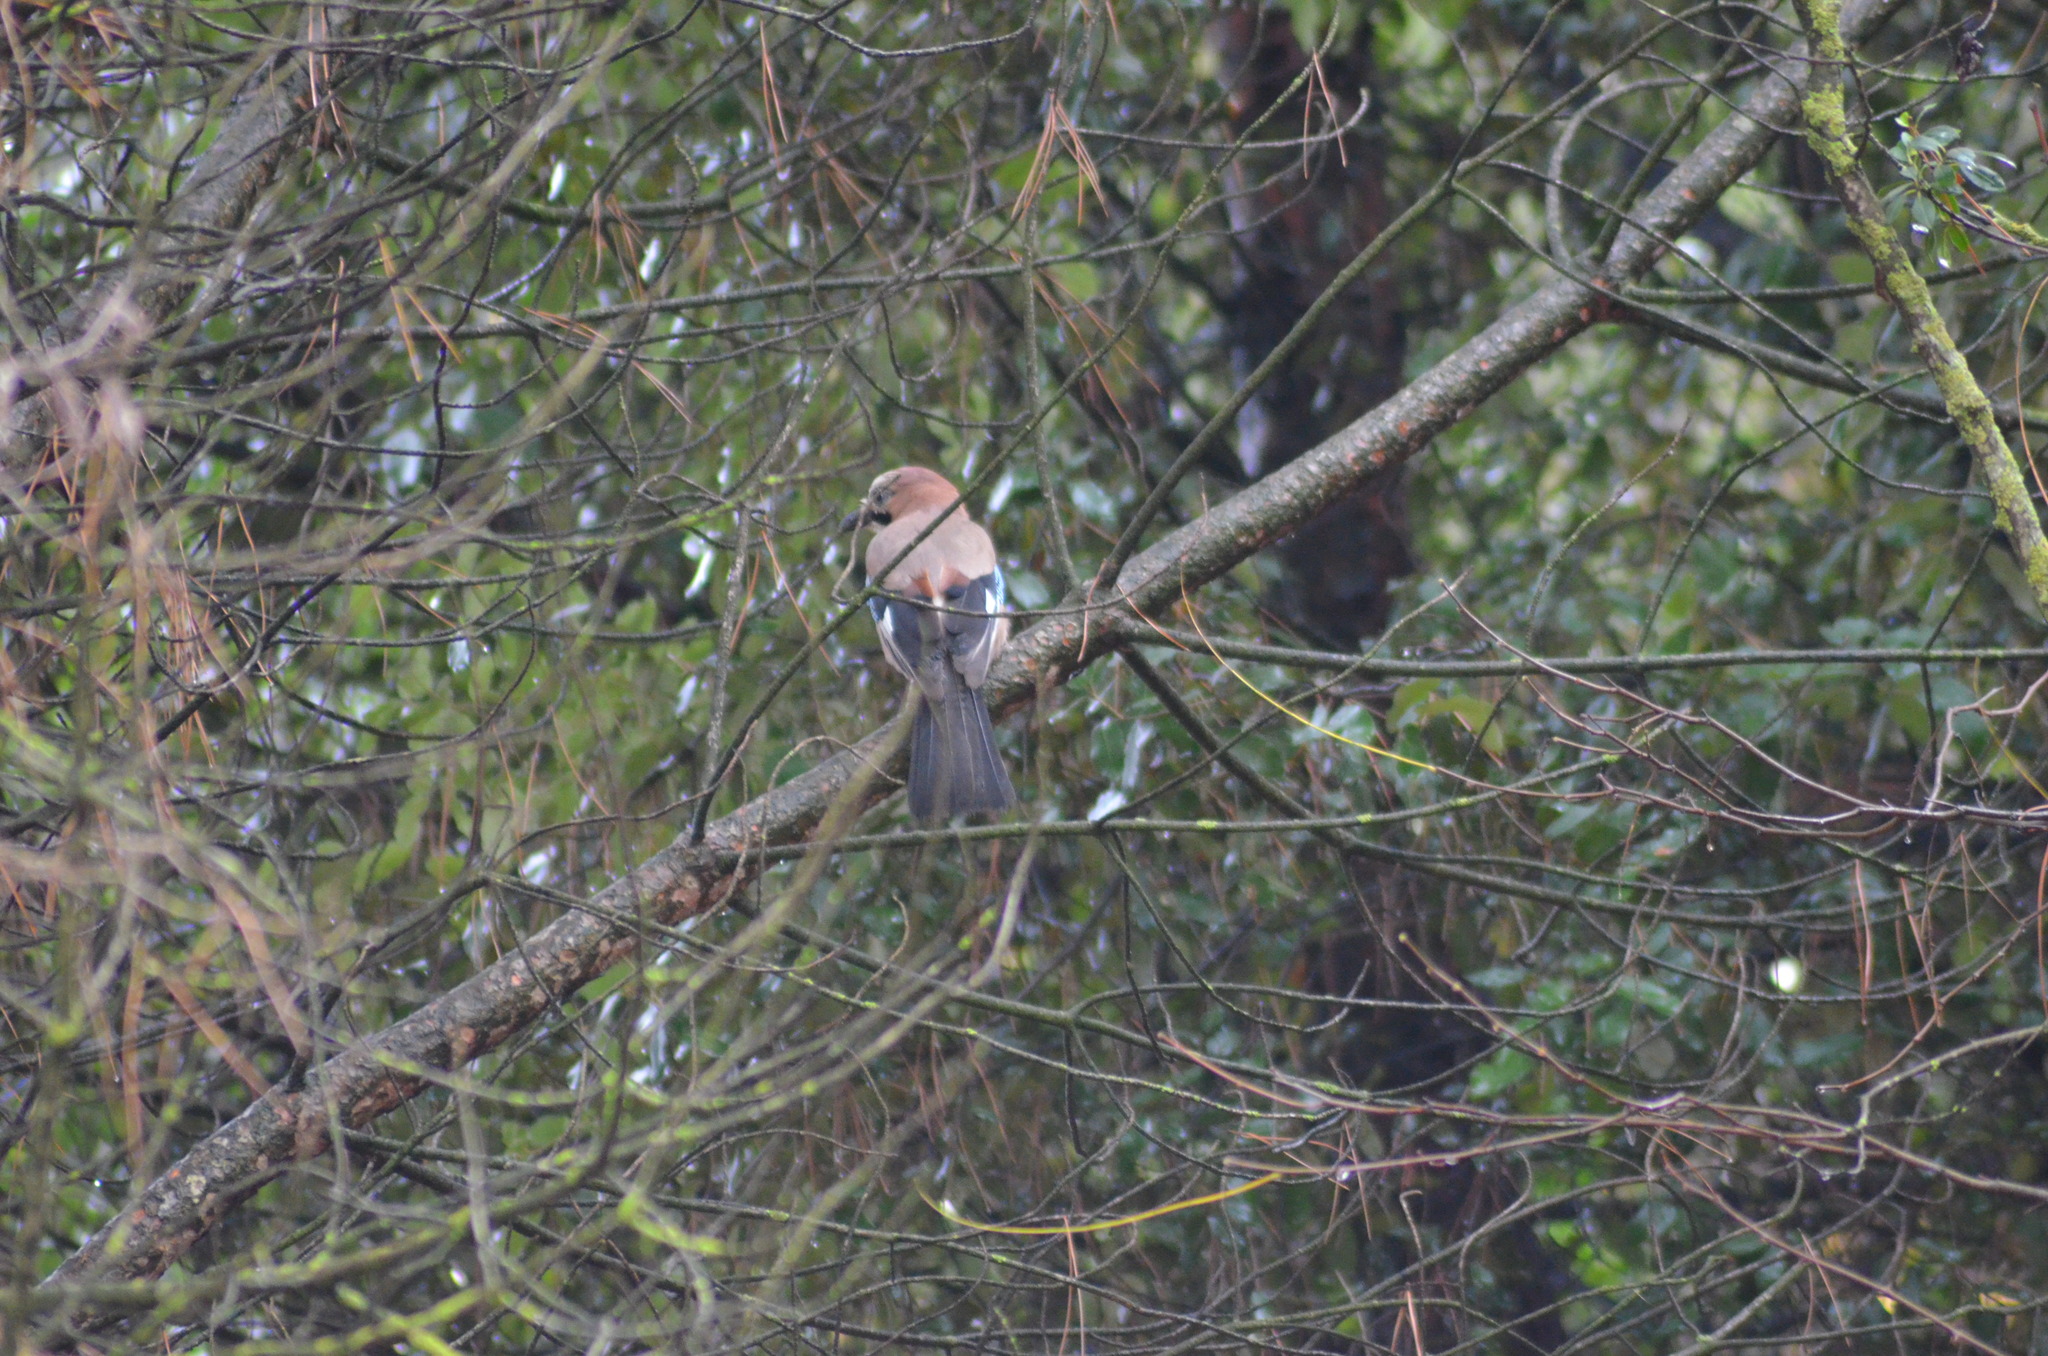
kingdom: Animalia
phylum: Chordata
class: Aves
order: Passeriformes
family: Corvidae
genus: Garrulus
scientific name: Garrulus glandarius
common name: Eurasian jay
